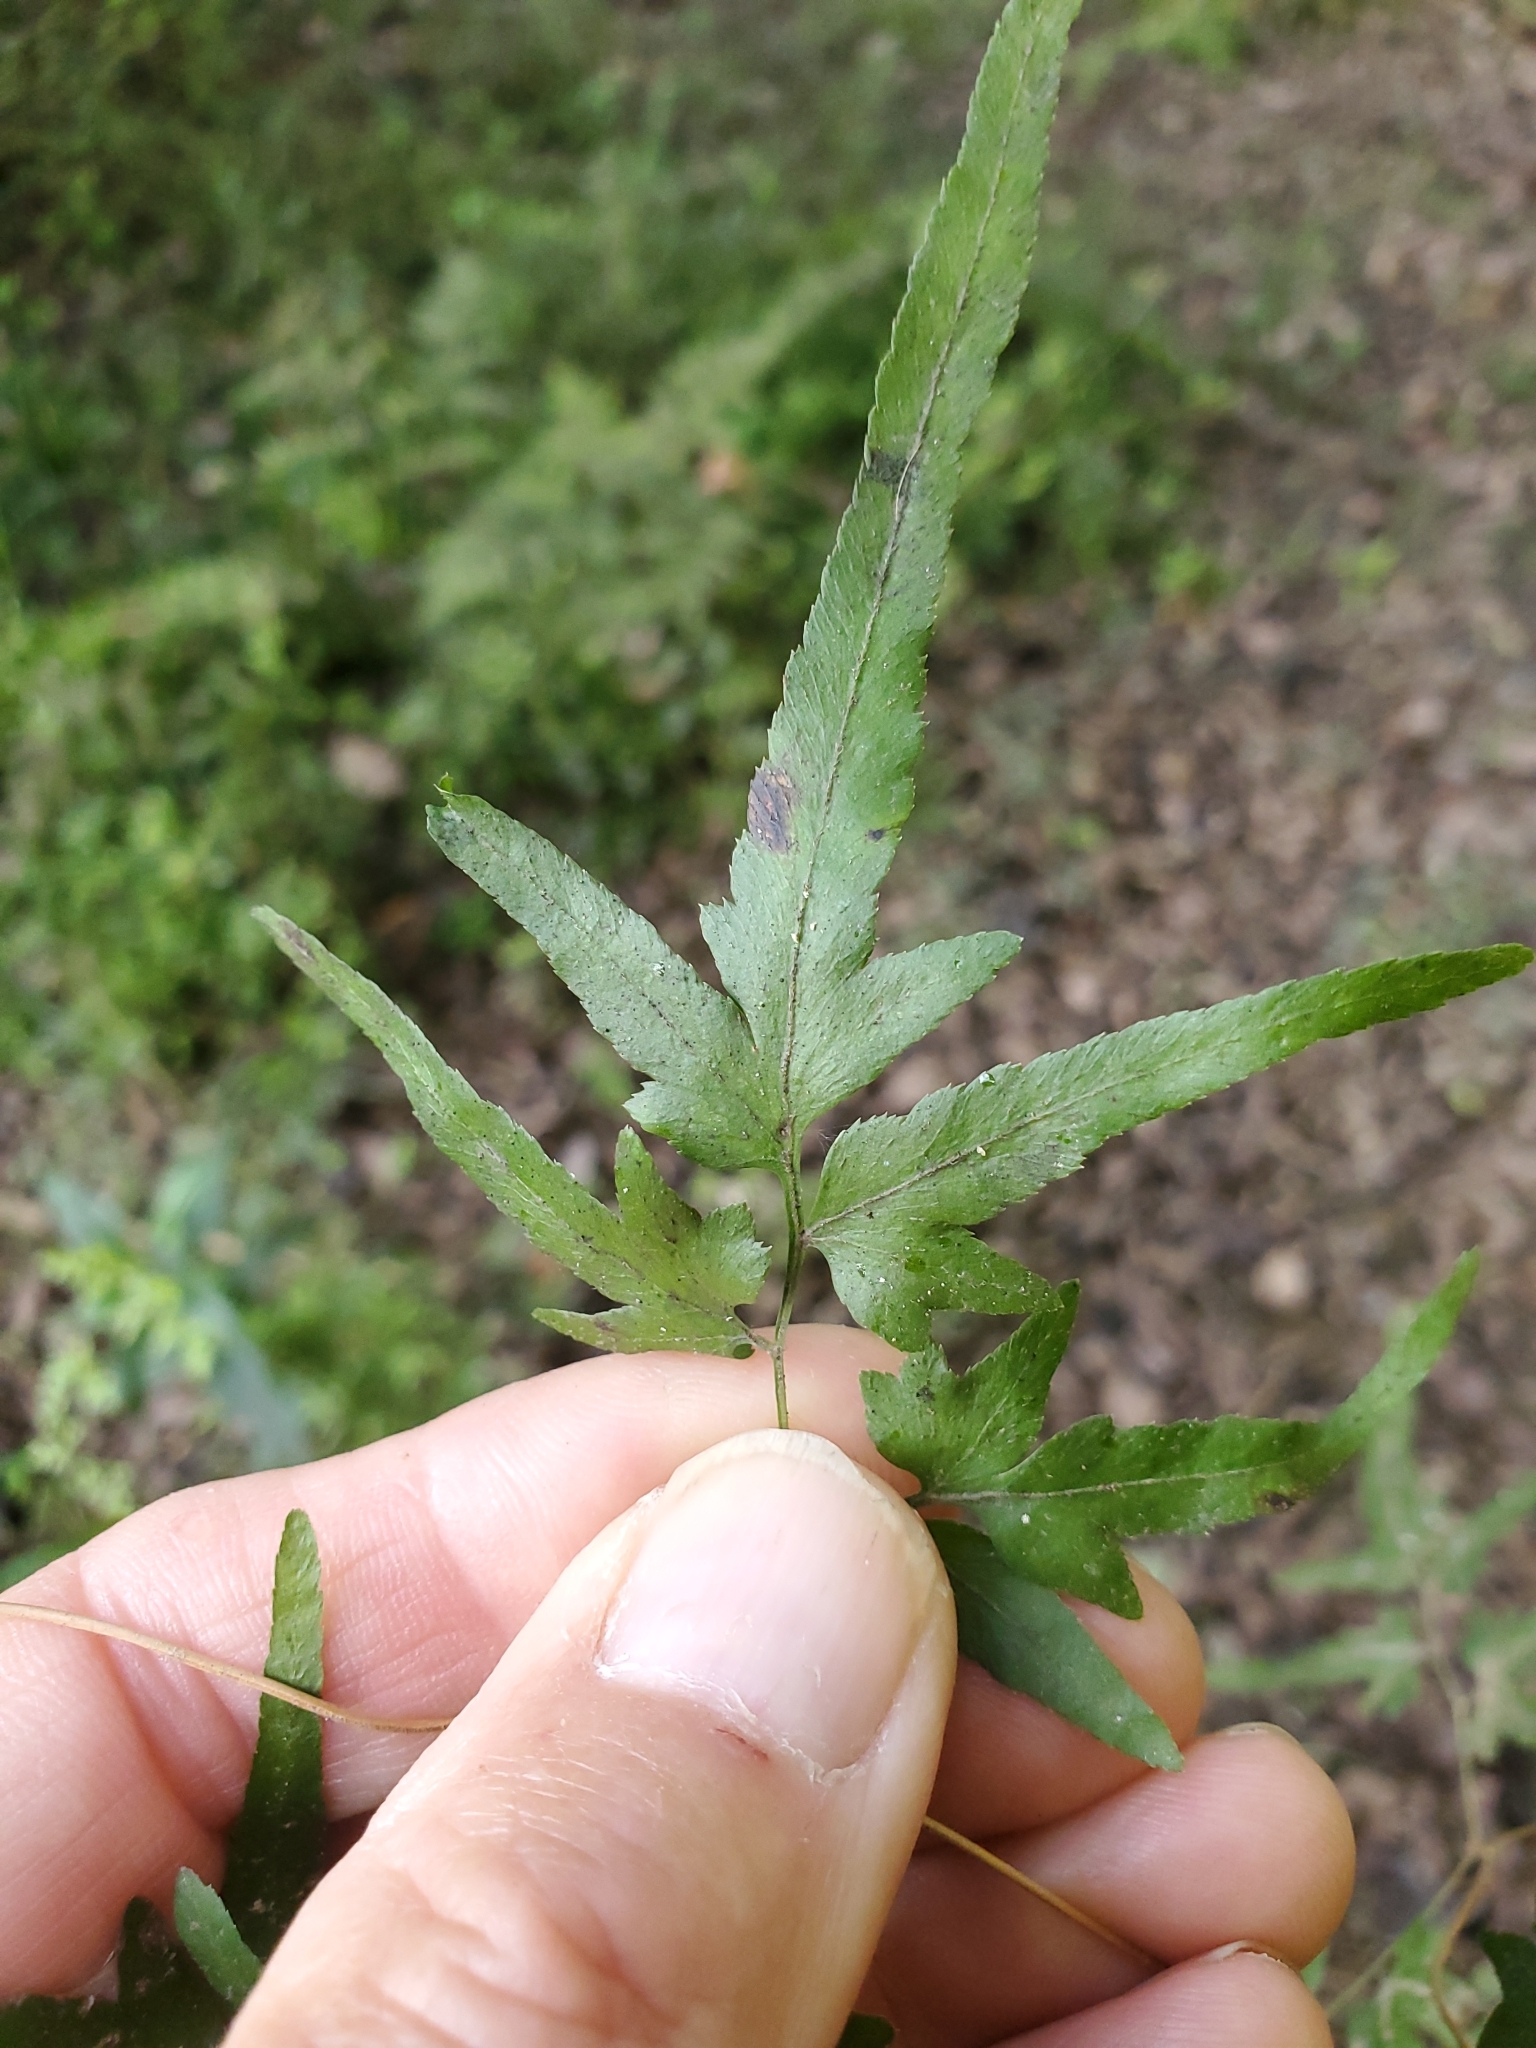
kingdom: Plantae
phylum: Tracheophyta
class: Polypodiopsida
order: Schizaeales
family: Lygodiaceae
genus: Lygodium
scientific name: Lygodium japonicum
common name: Japanese climbing fern
